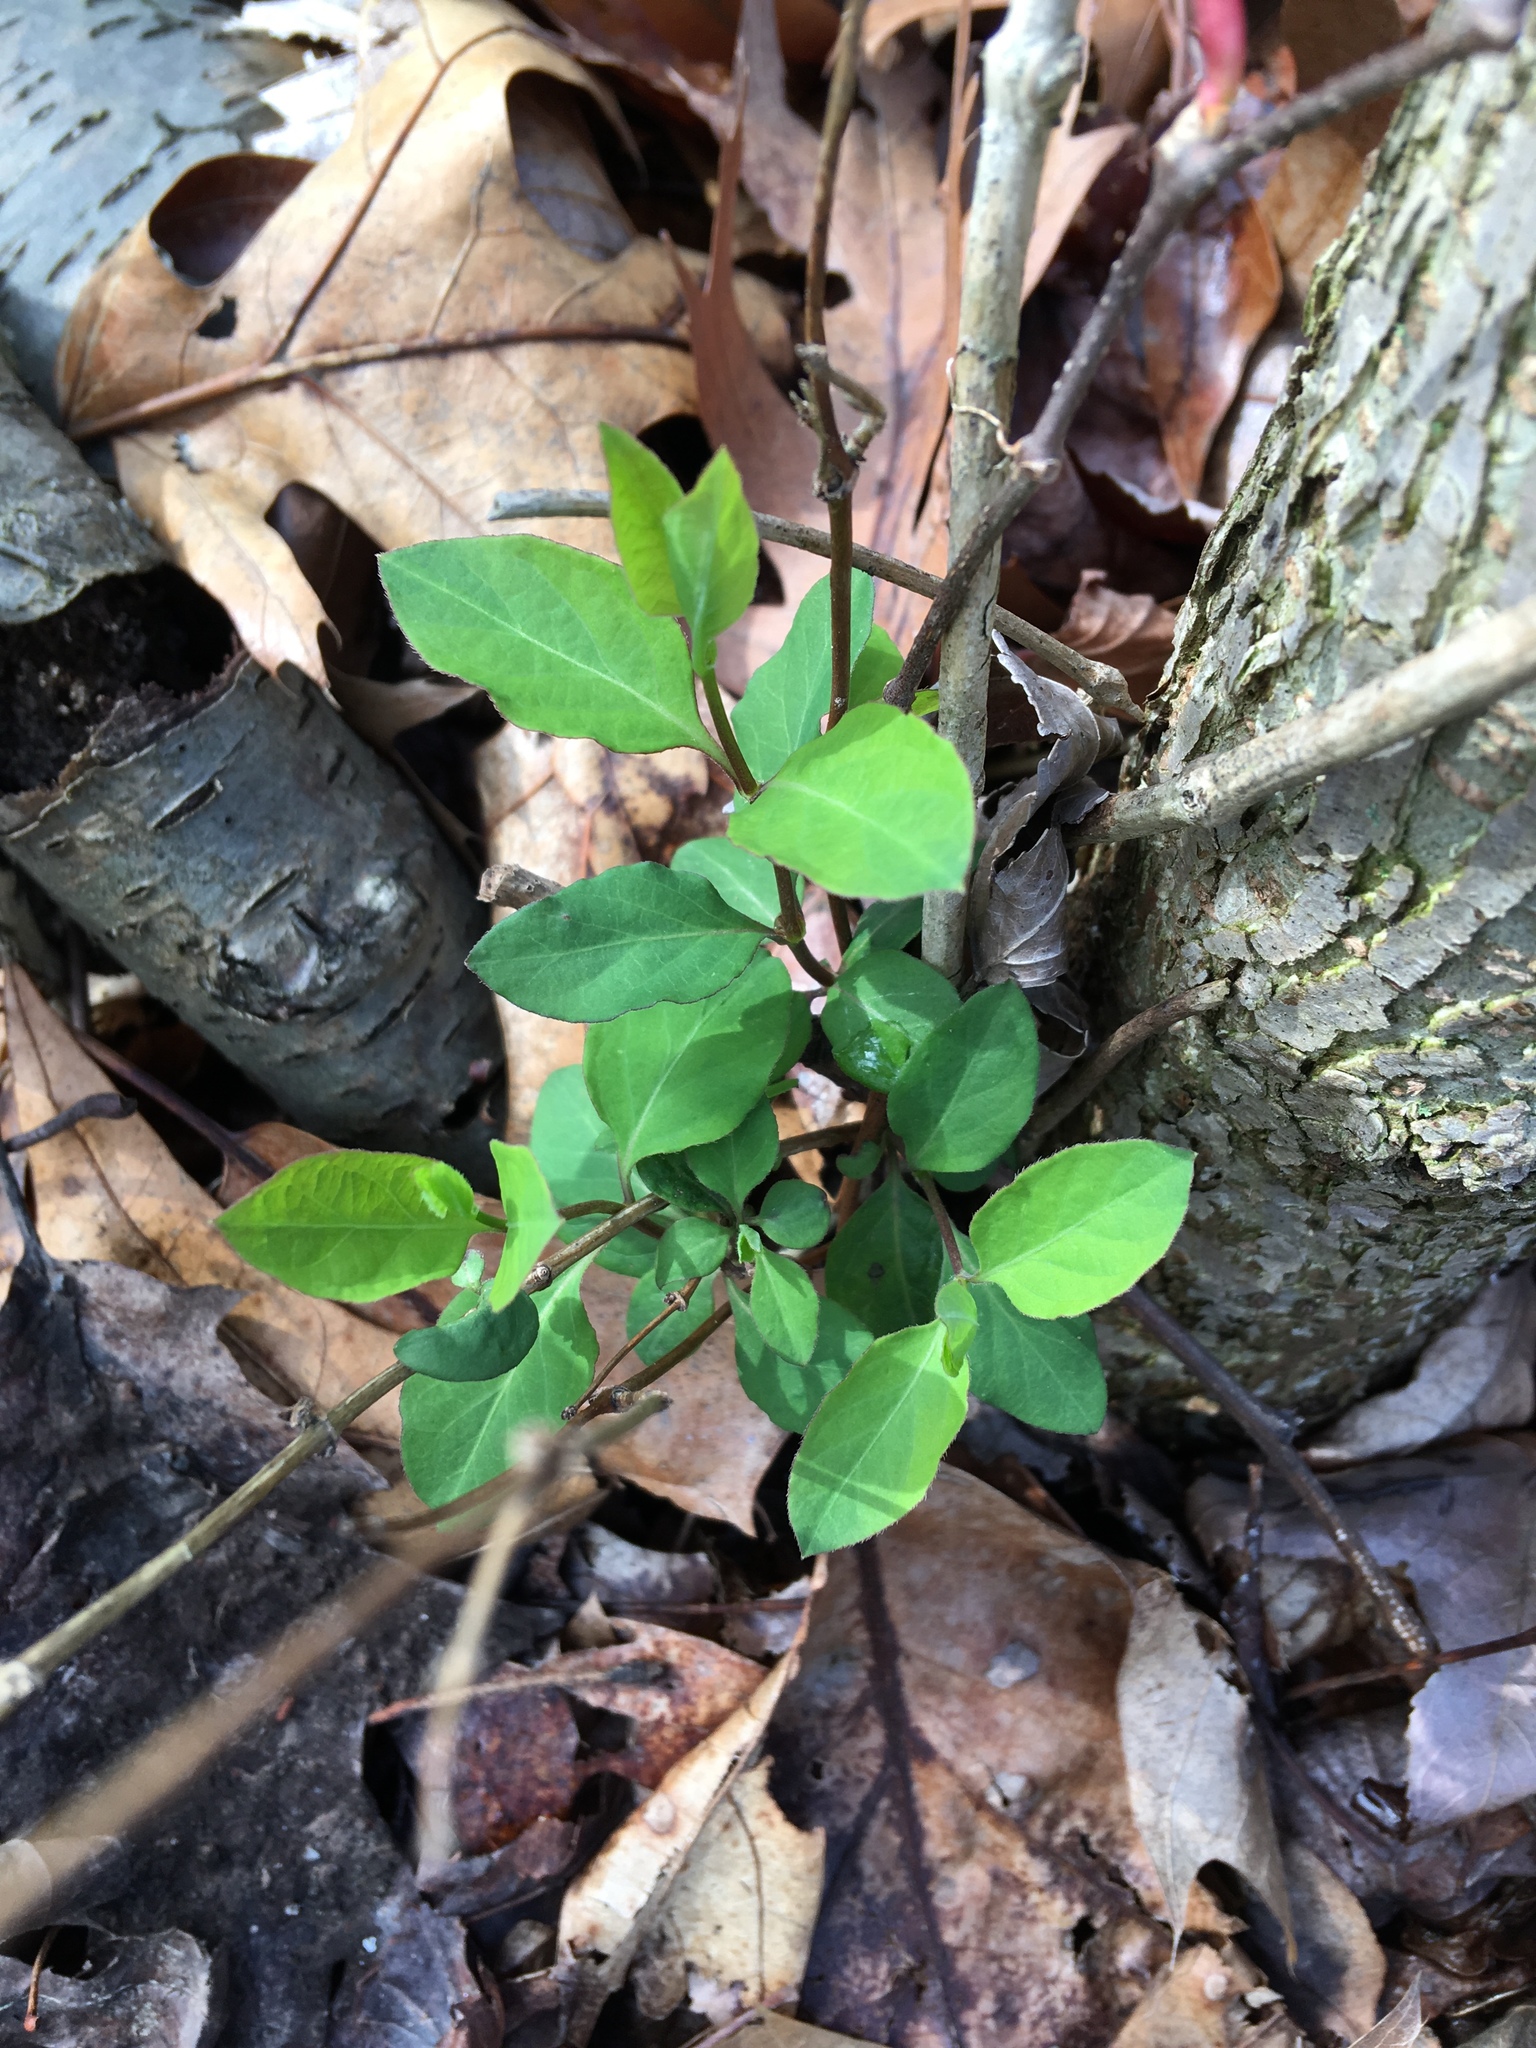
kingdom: Plantae
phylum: Tracheophyta
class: Magnoliopsida
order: Dipsacales
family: Caprifoliaceae
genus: Lonicera
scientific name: Lonicera japonica
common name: Japanese honeysuckle
